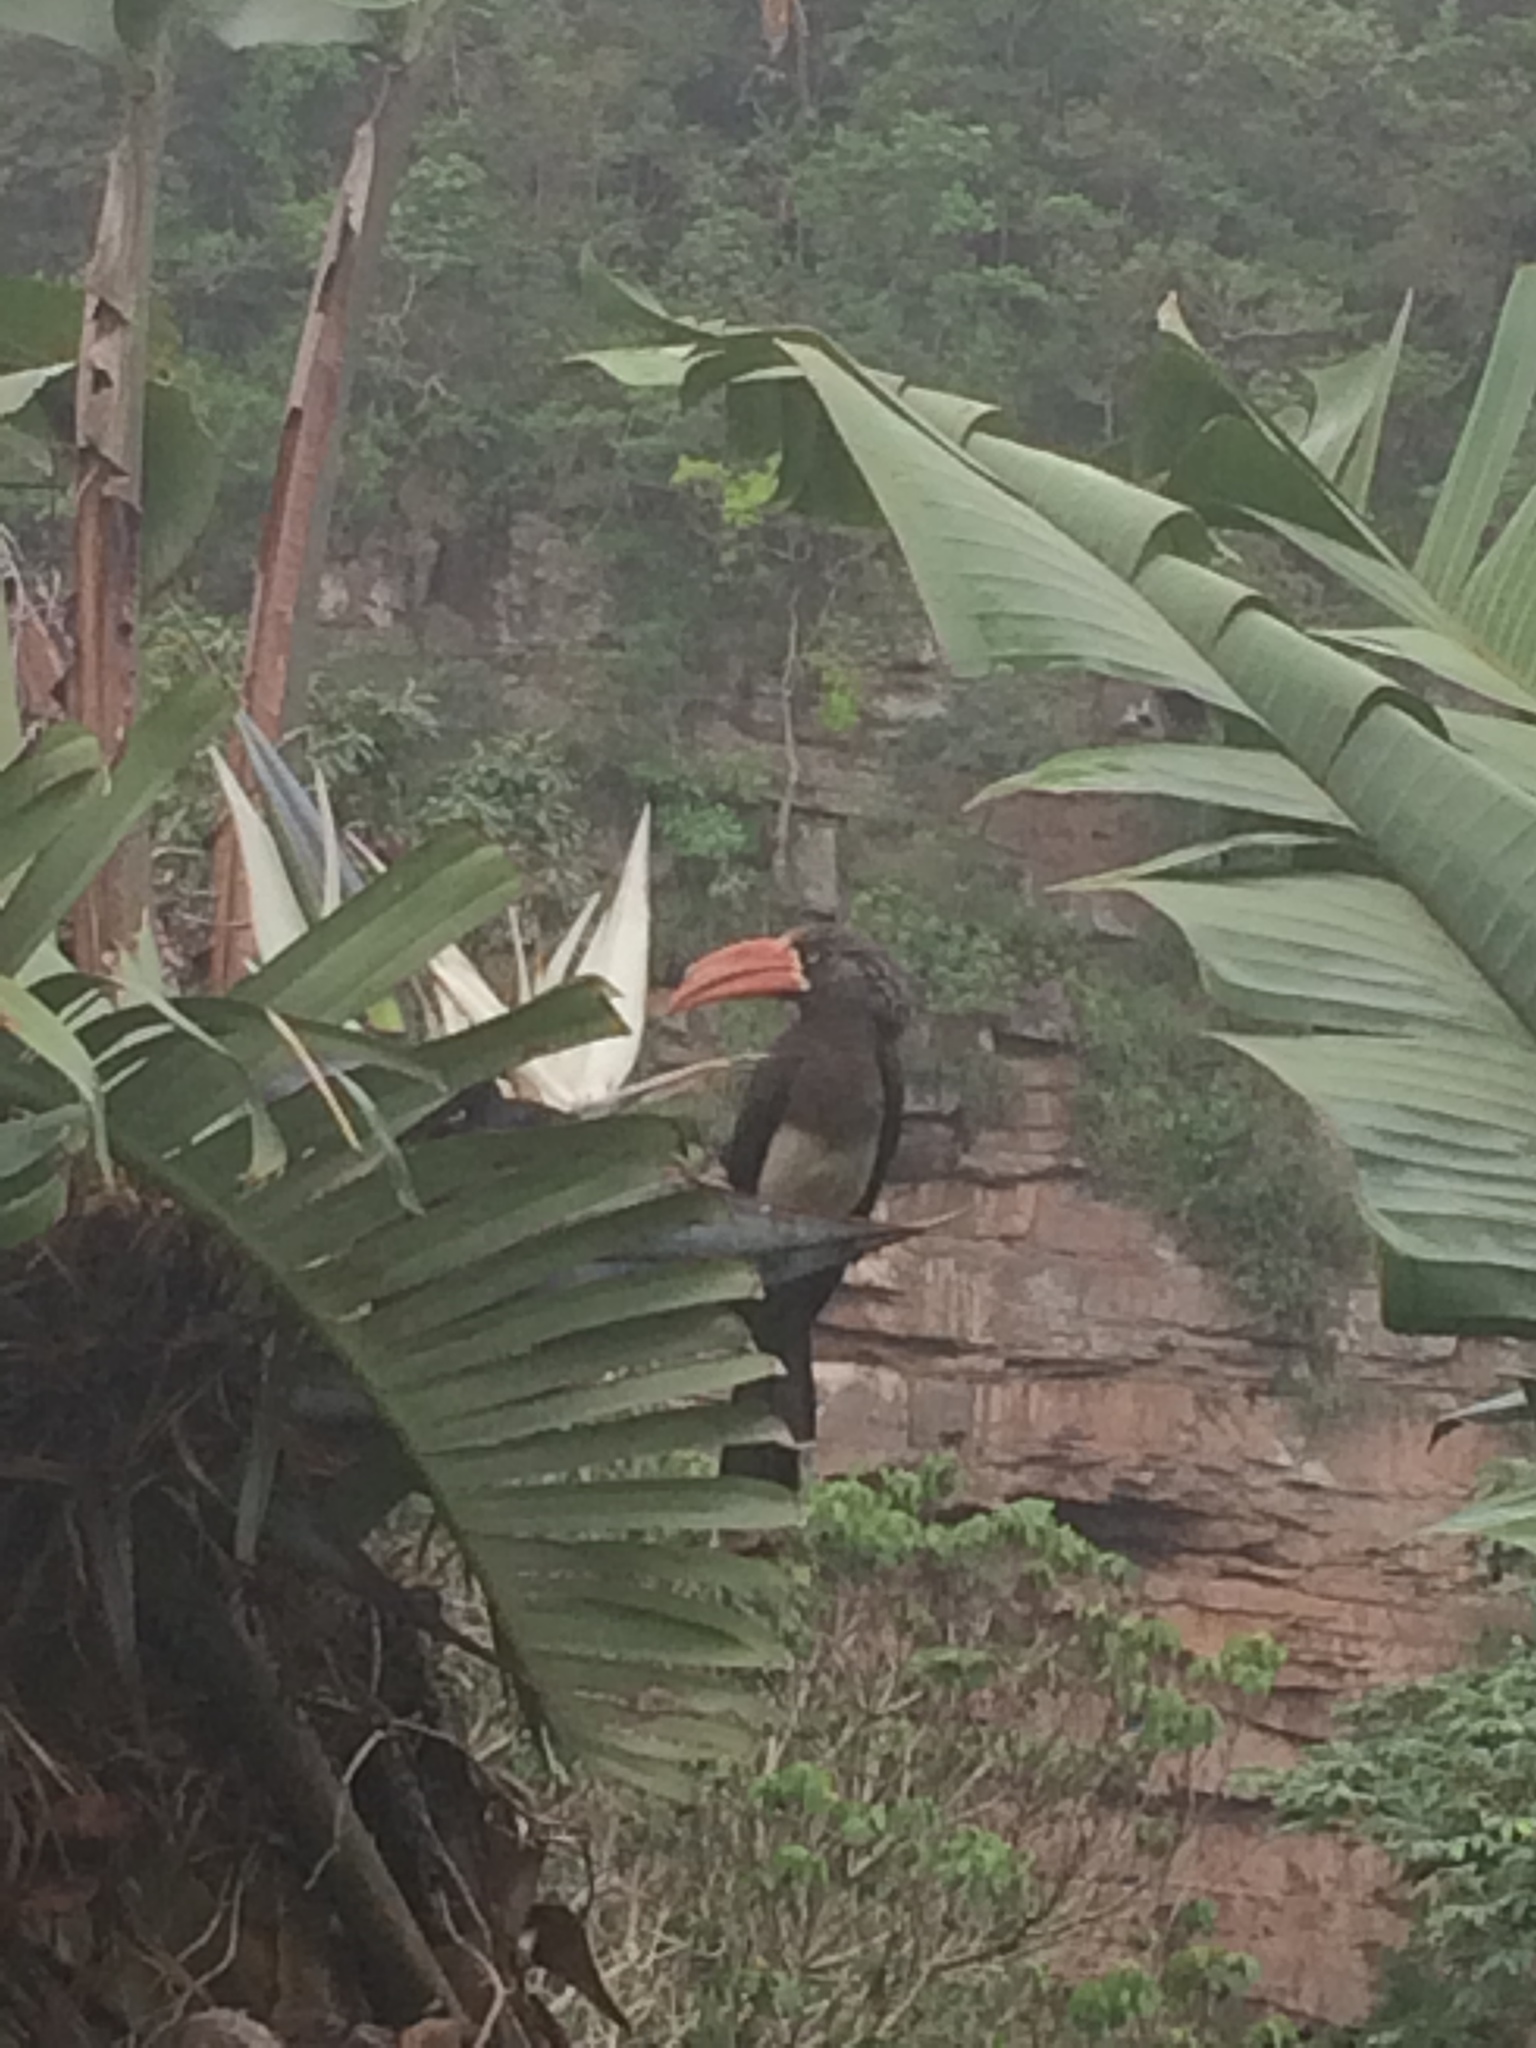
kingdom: Animalia
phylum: Chordata
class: Aves
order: Bucerotiformes
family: Bucerotidae
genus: Lophoceros
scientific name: Lophoceros alboterminatus
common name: Crowned hornbill
